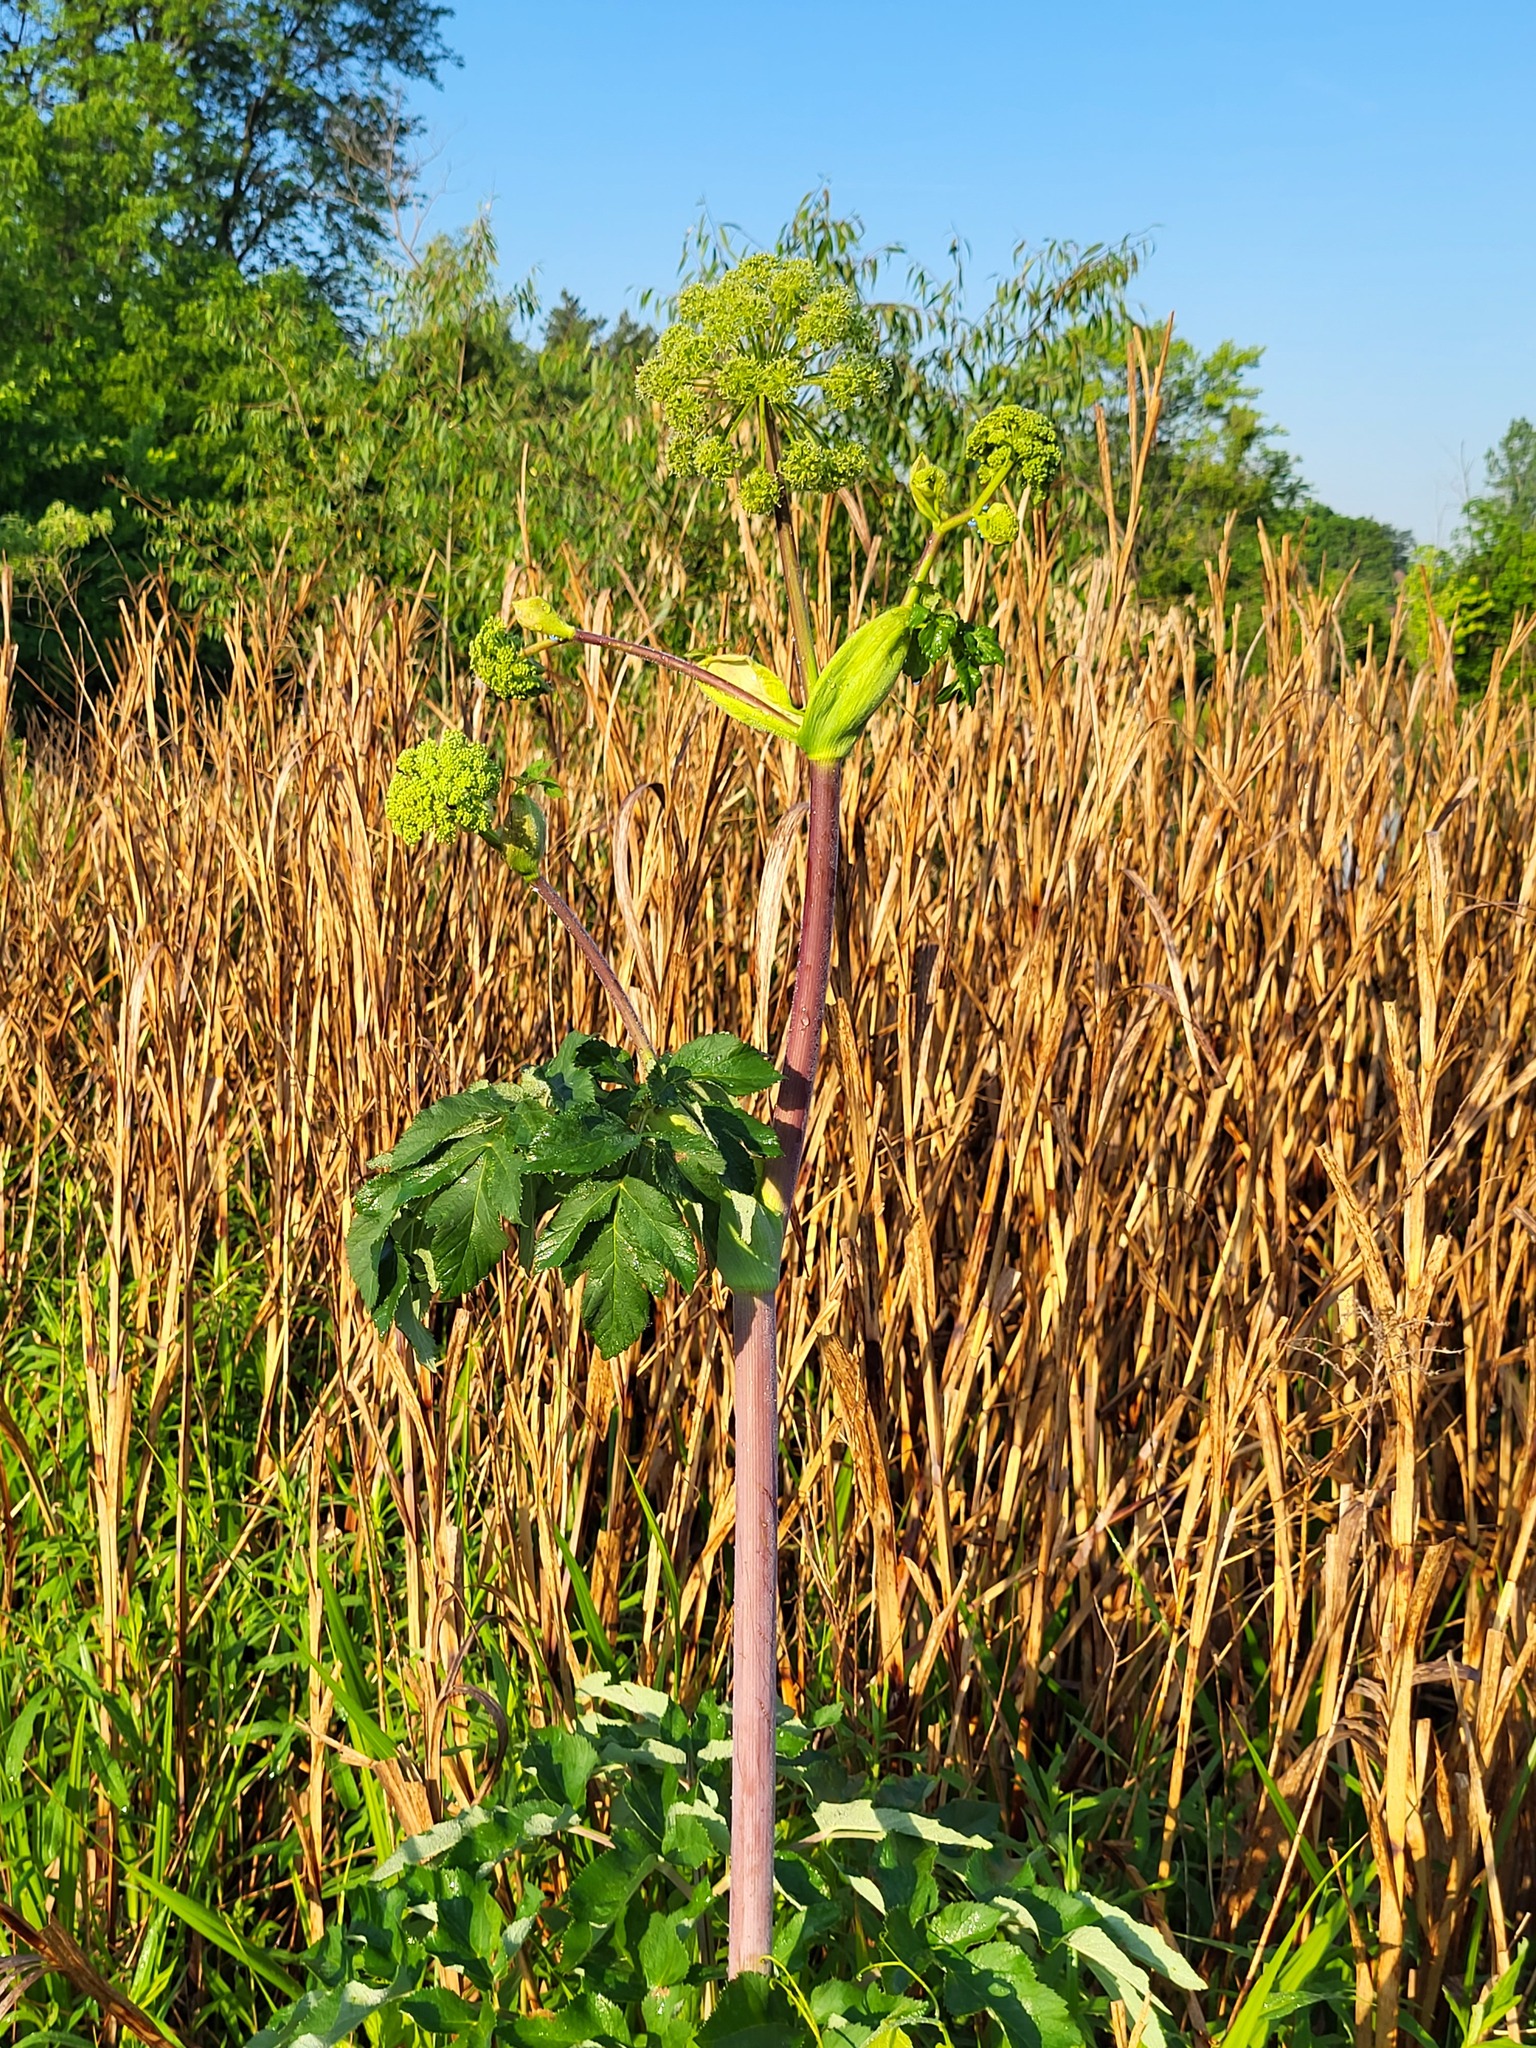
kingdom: Plantae
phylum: Tracheophyta
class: Magnoliopsida
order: Apiales
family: Apiaceae
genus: Angelica
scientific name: Angelica atropurpurea
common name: Great angelica
